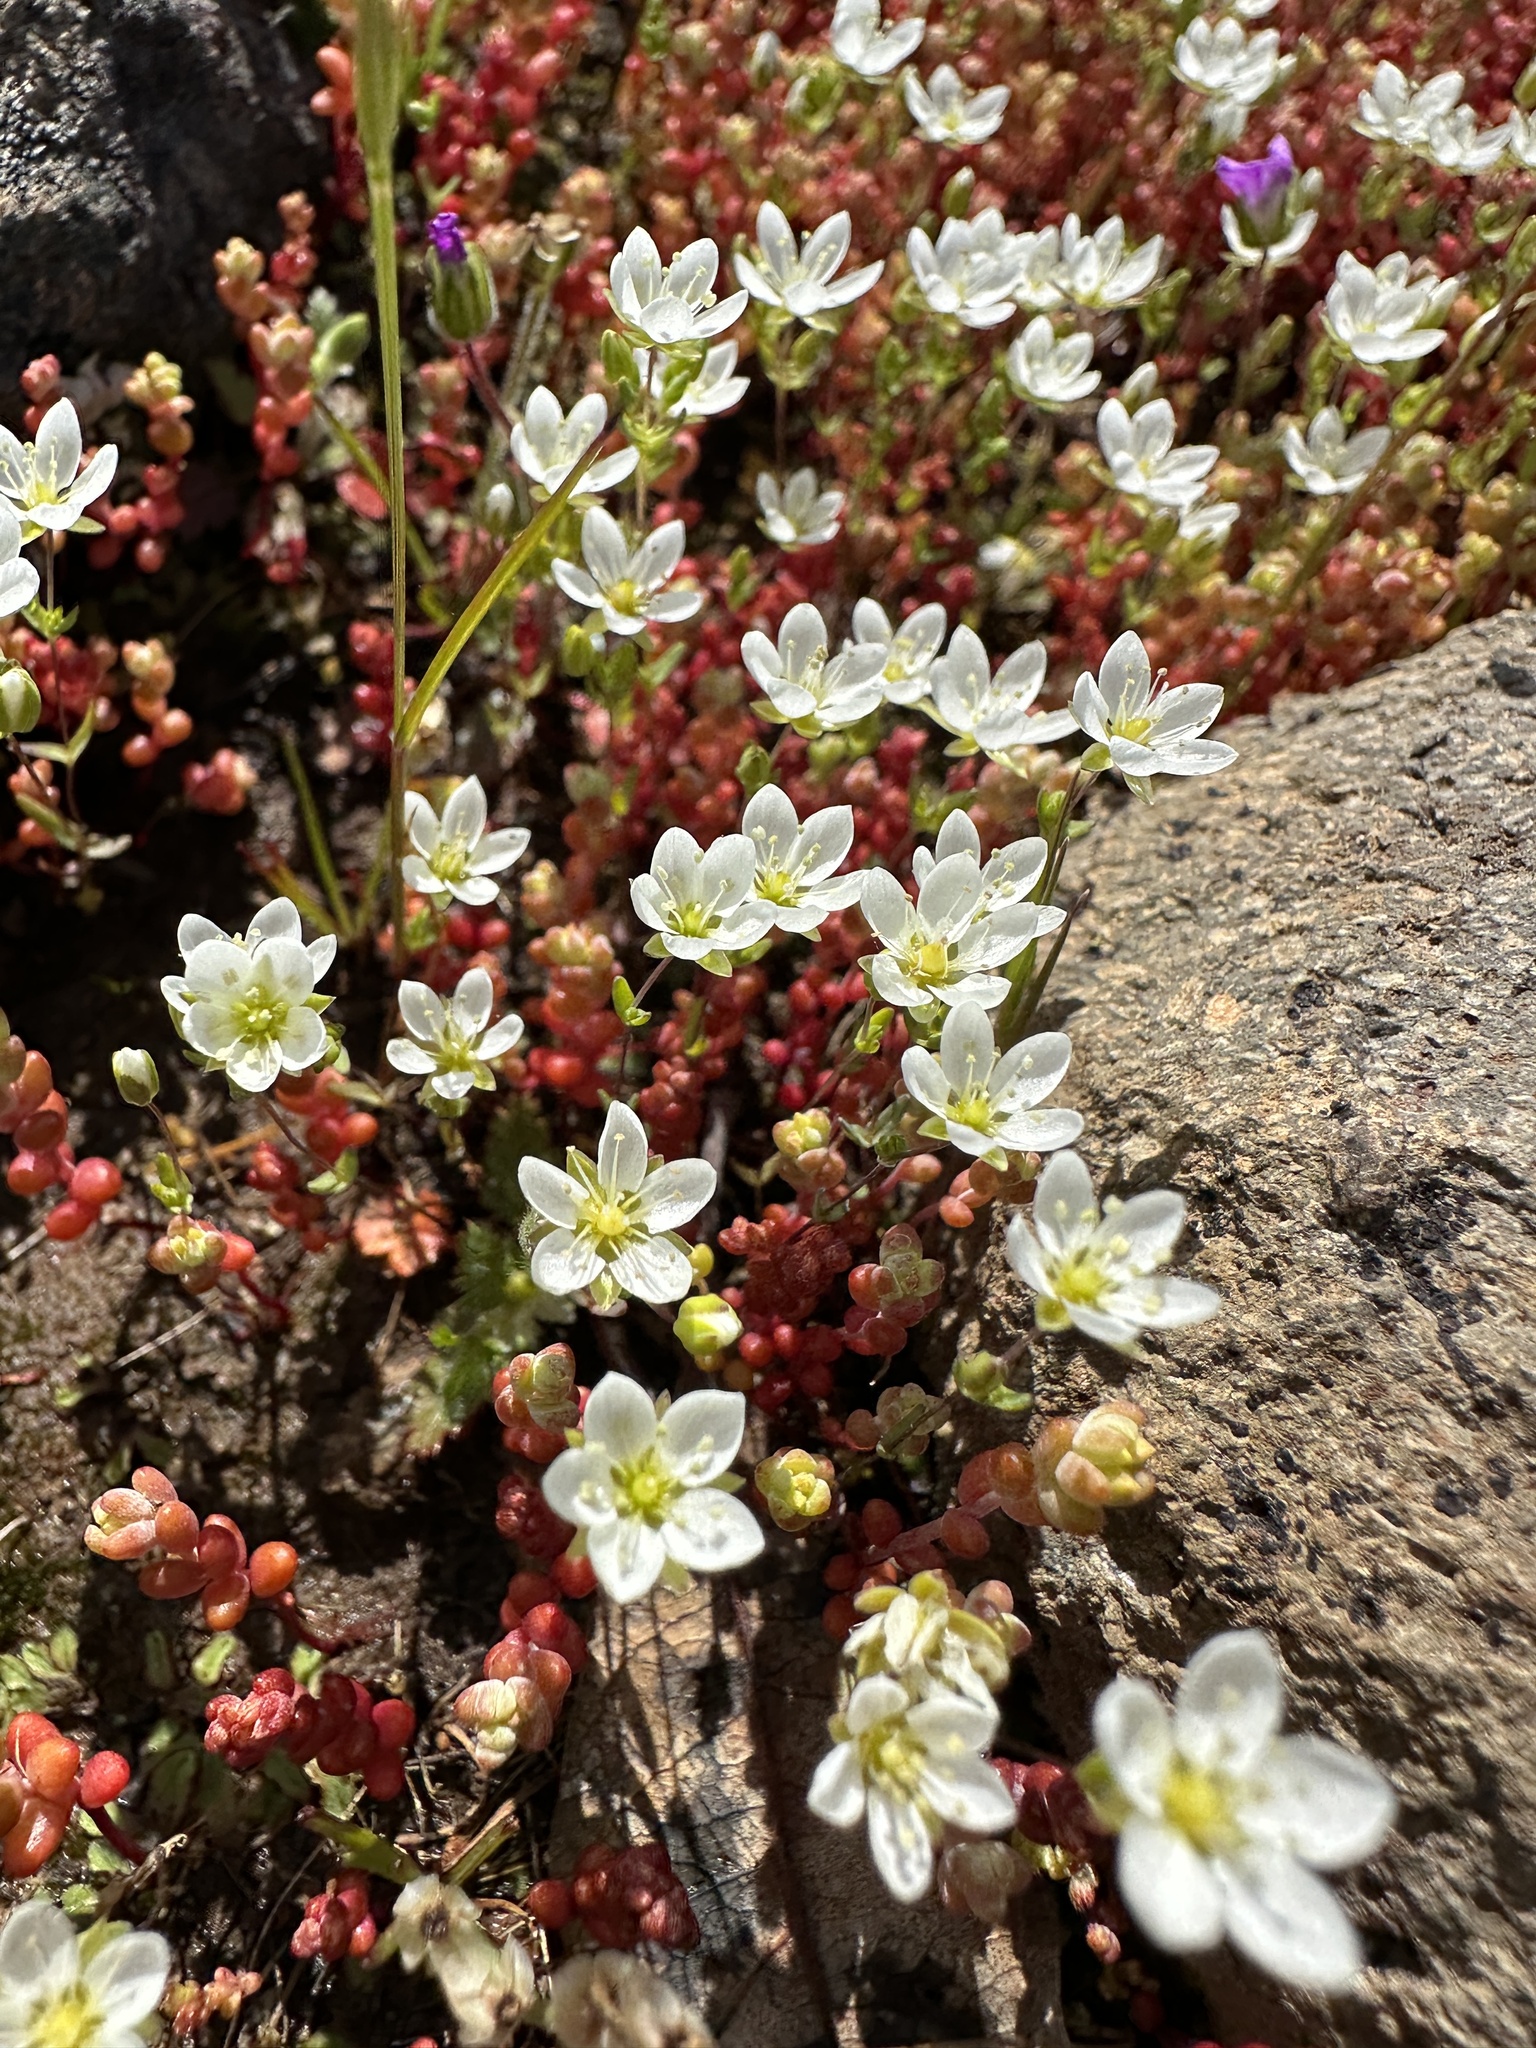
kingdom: Plantae
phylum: Tracheophyta
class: Magnoliopsida
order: Caryophyllales
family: Caryophyllaceae
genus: Sabulina
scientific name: Sabulina californica
